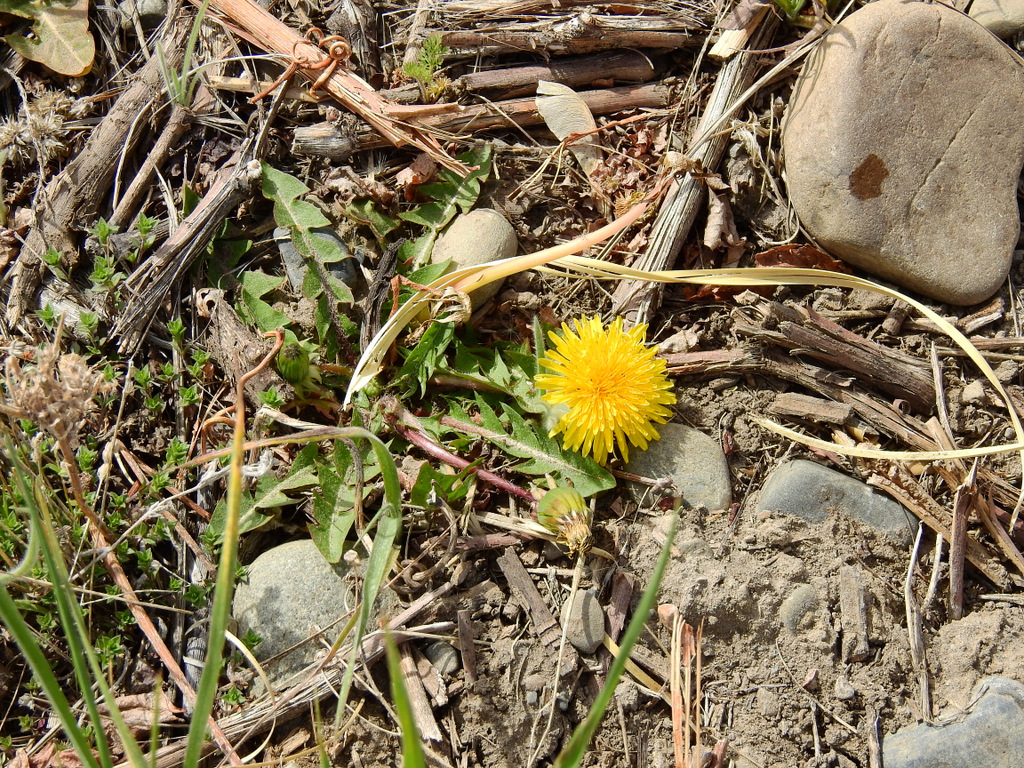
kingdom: Plantae
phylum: Tracheophyta
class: Magnoliopsida
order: Asterales
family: Asteraceae
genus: Taraxacum
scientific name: Taraxacum officinale
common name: Common dandelion
